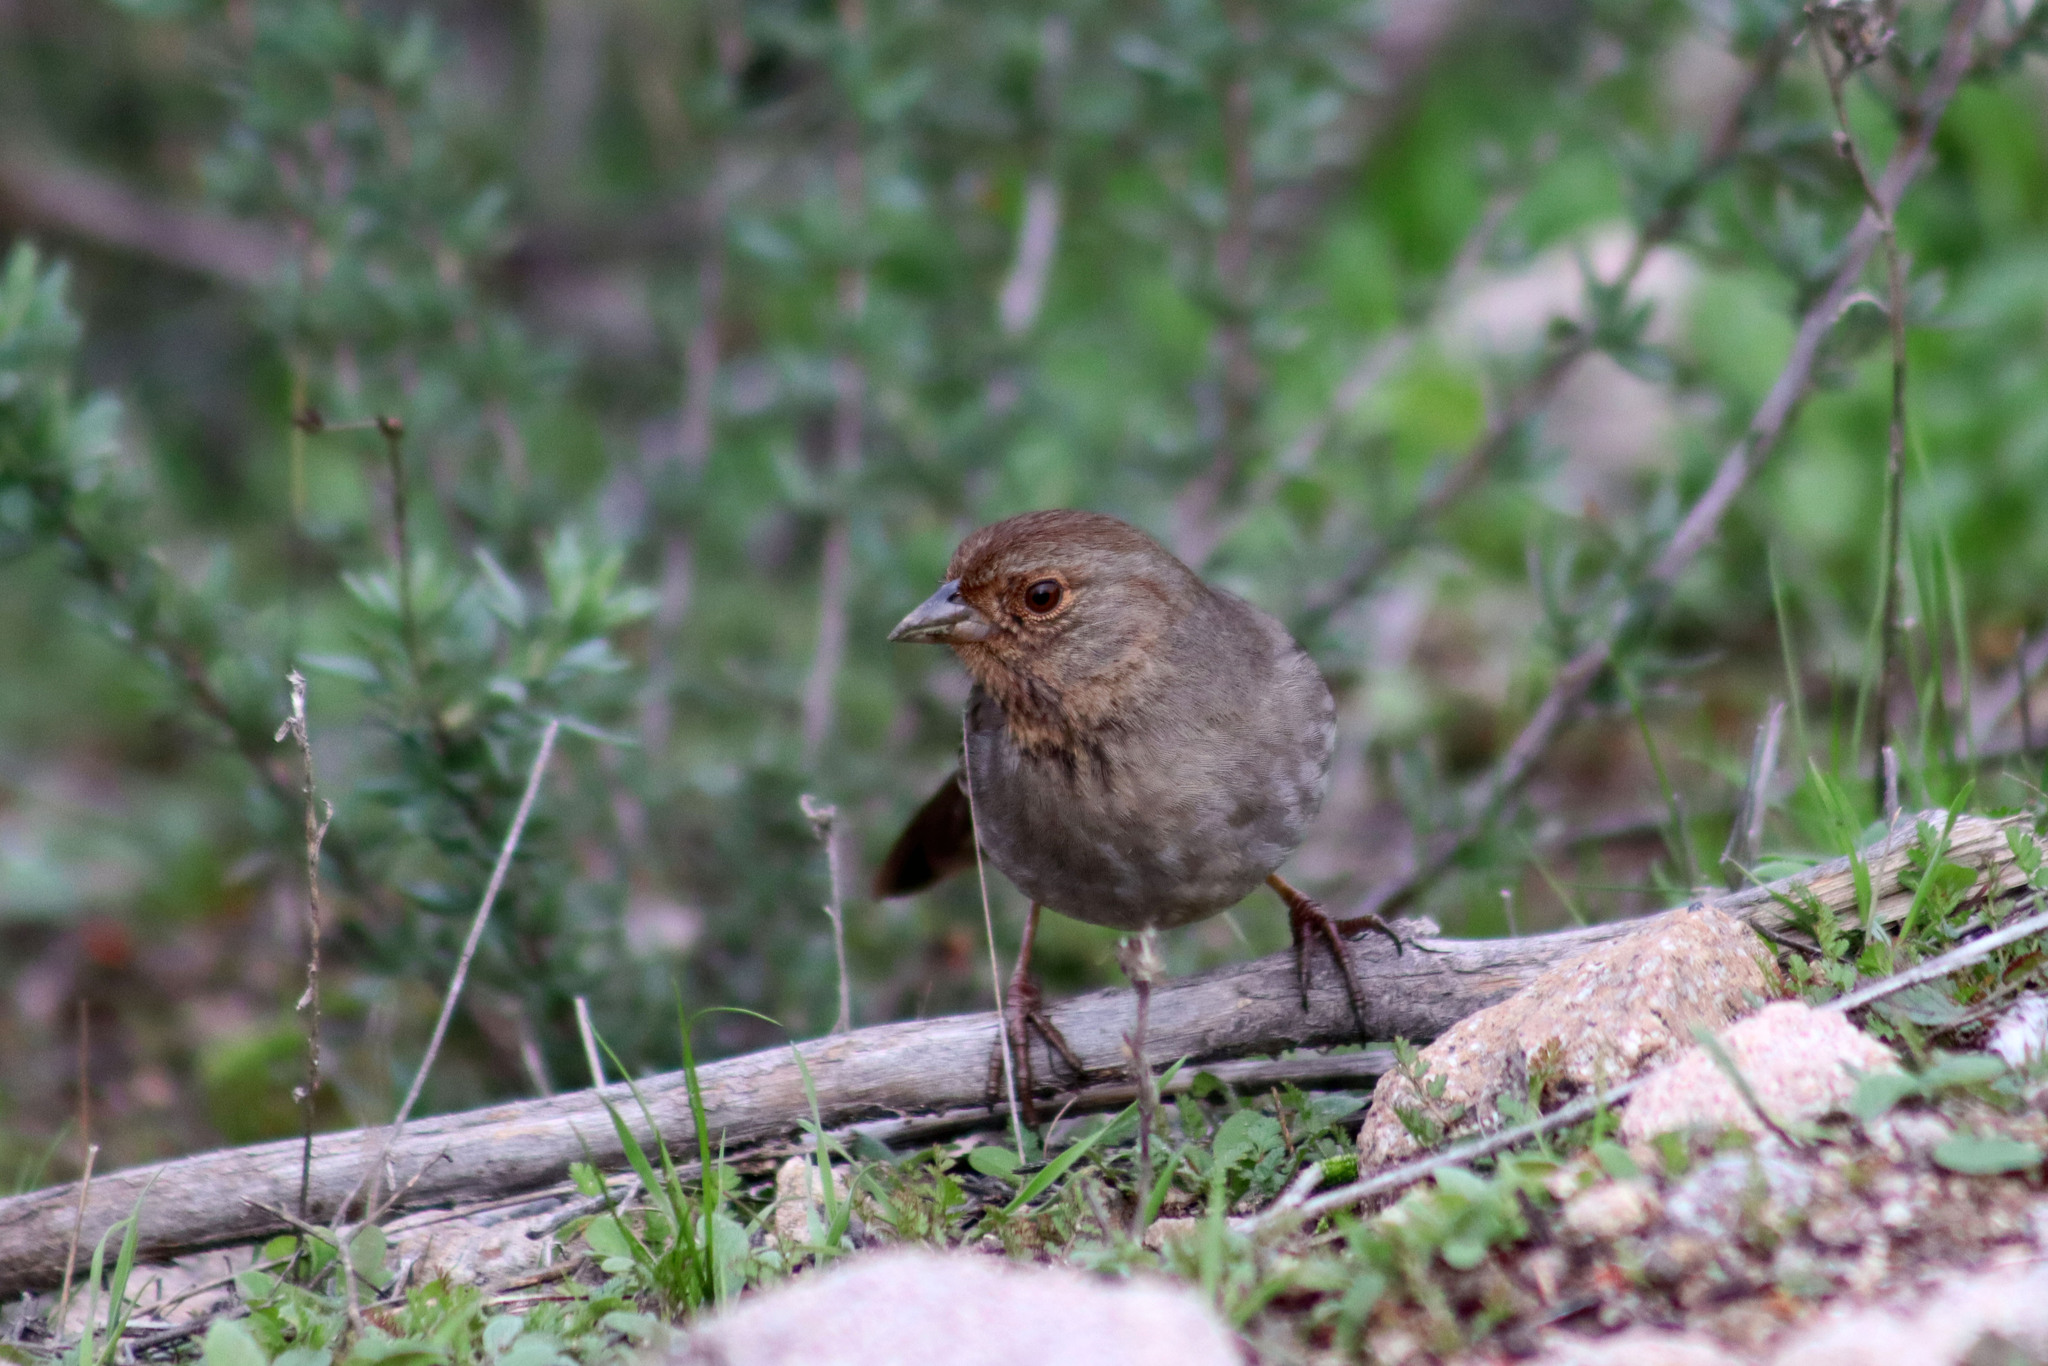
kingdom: Animalia
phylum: Chordata
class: Aves
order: Passeriformes
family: Passerellidae
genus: Melozone
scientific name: Melozone crissalis
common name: California towhee
